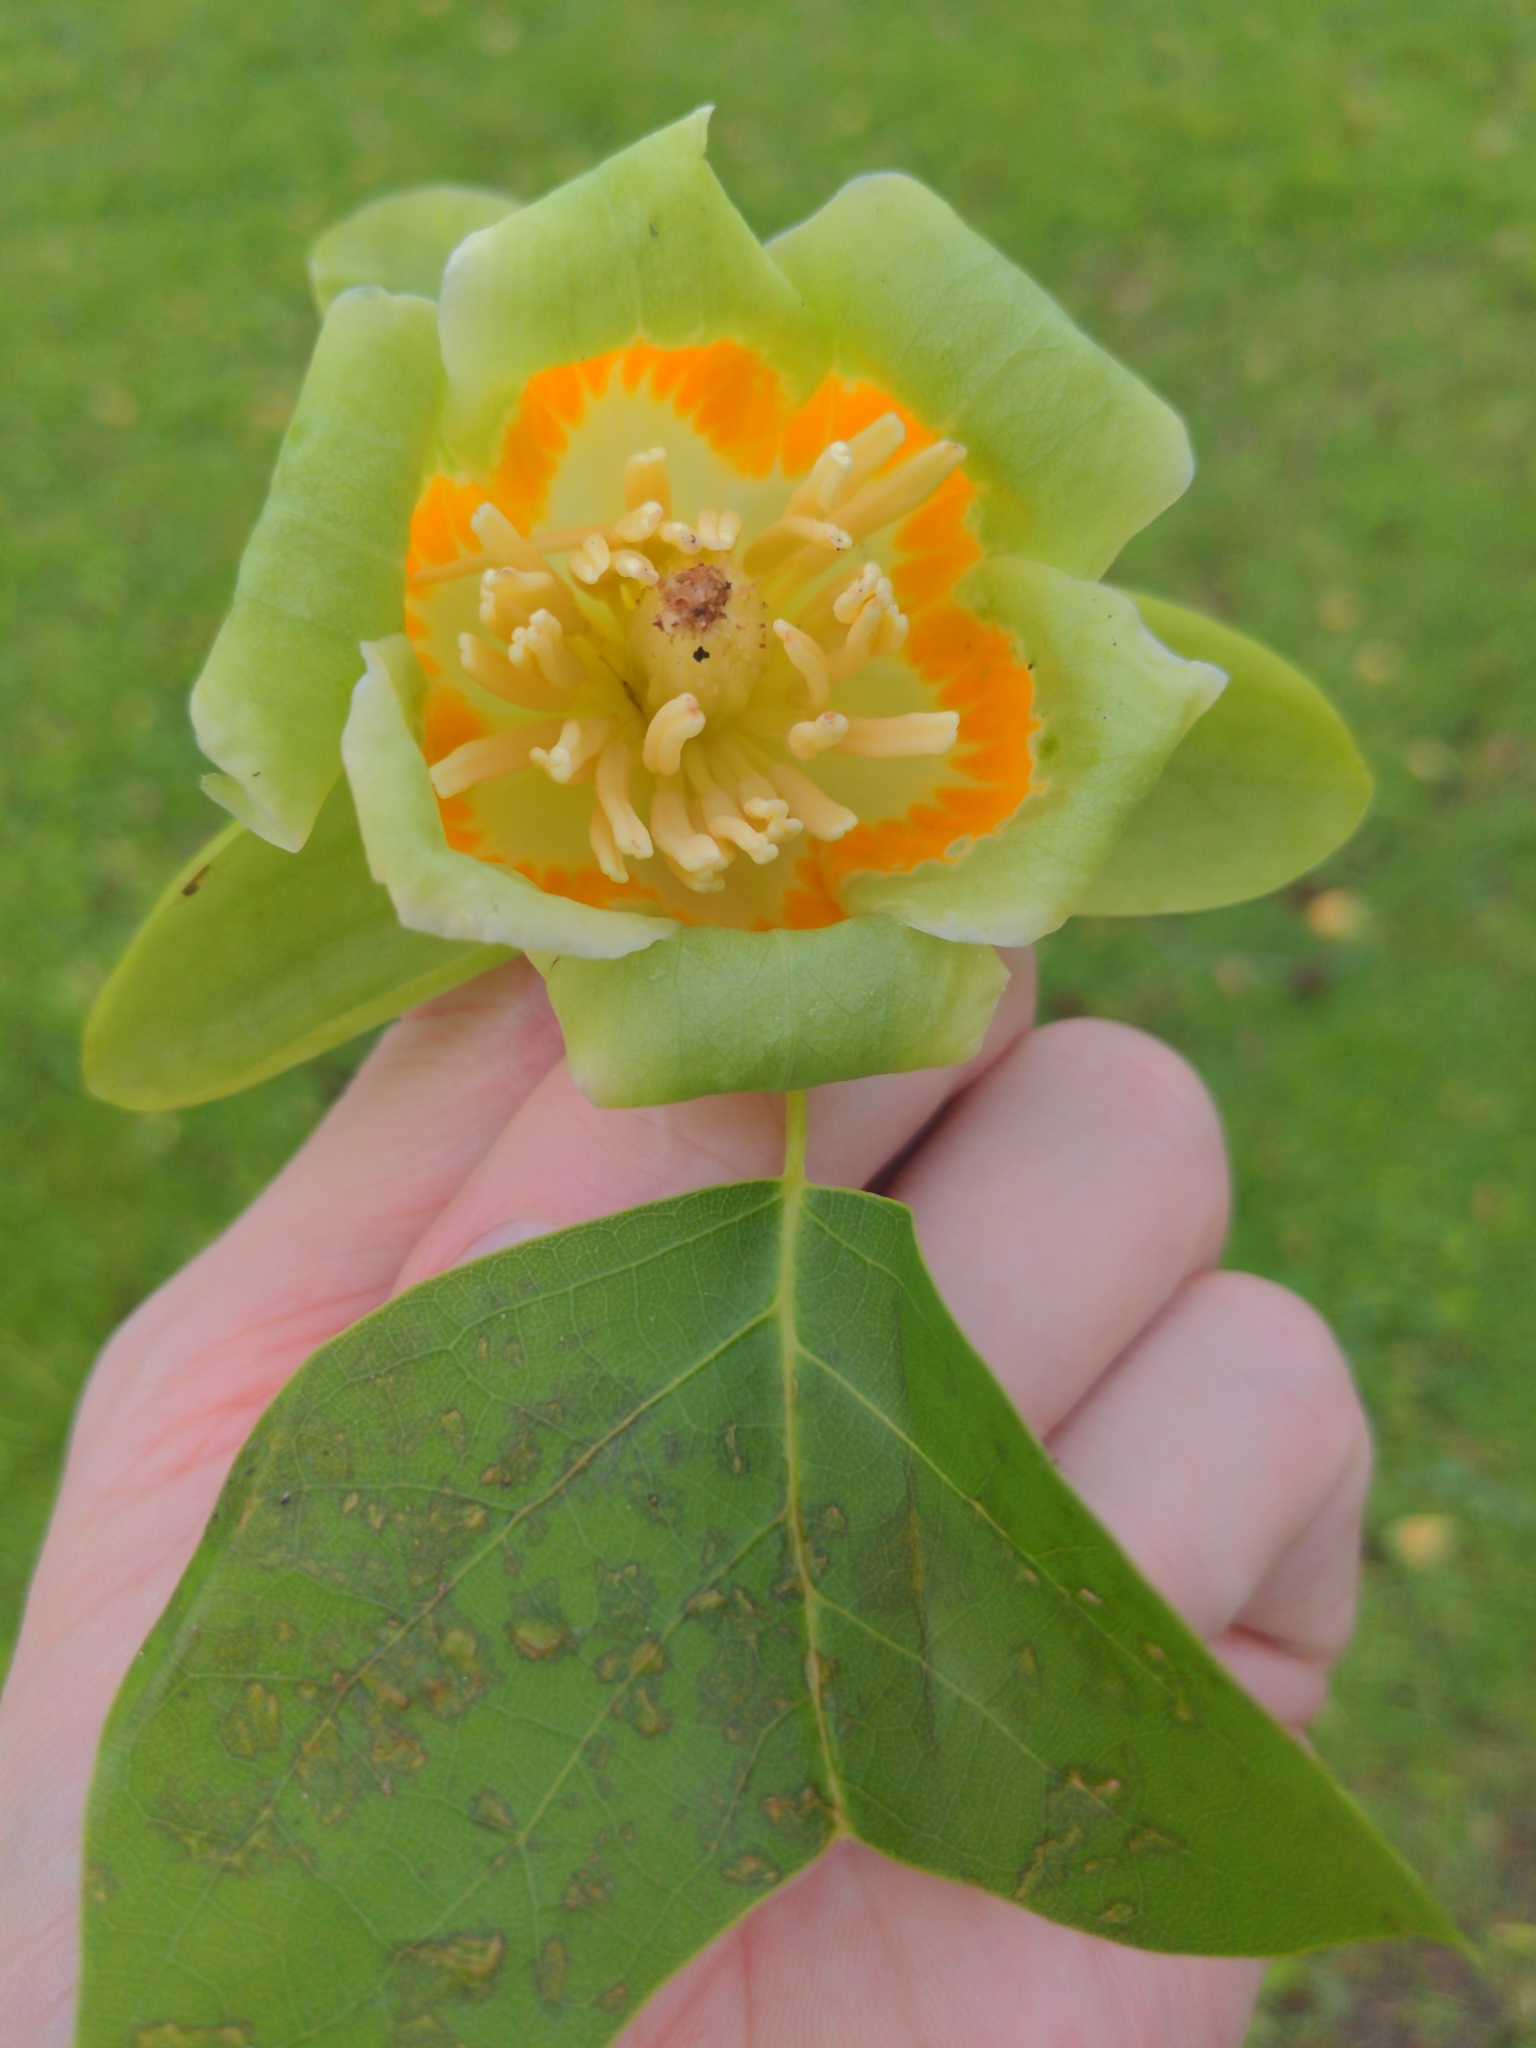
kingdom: Plantae
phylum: Tracheophyta
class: Magnoliopsida
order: Magnoliales
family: Magnoliaceae
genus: Liriodendron
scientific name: Liriodendron tulipifera
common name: Tulip tree
